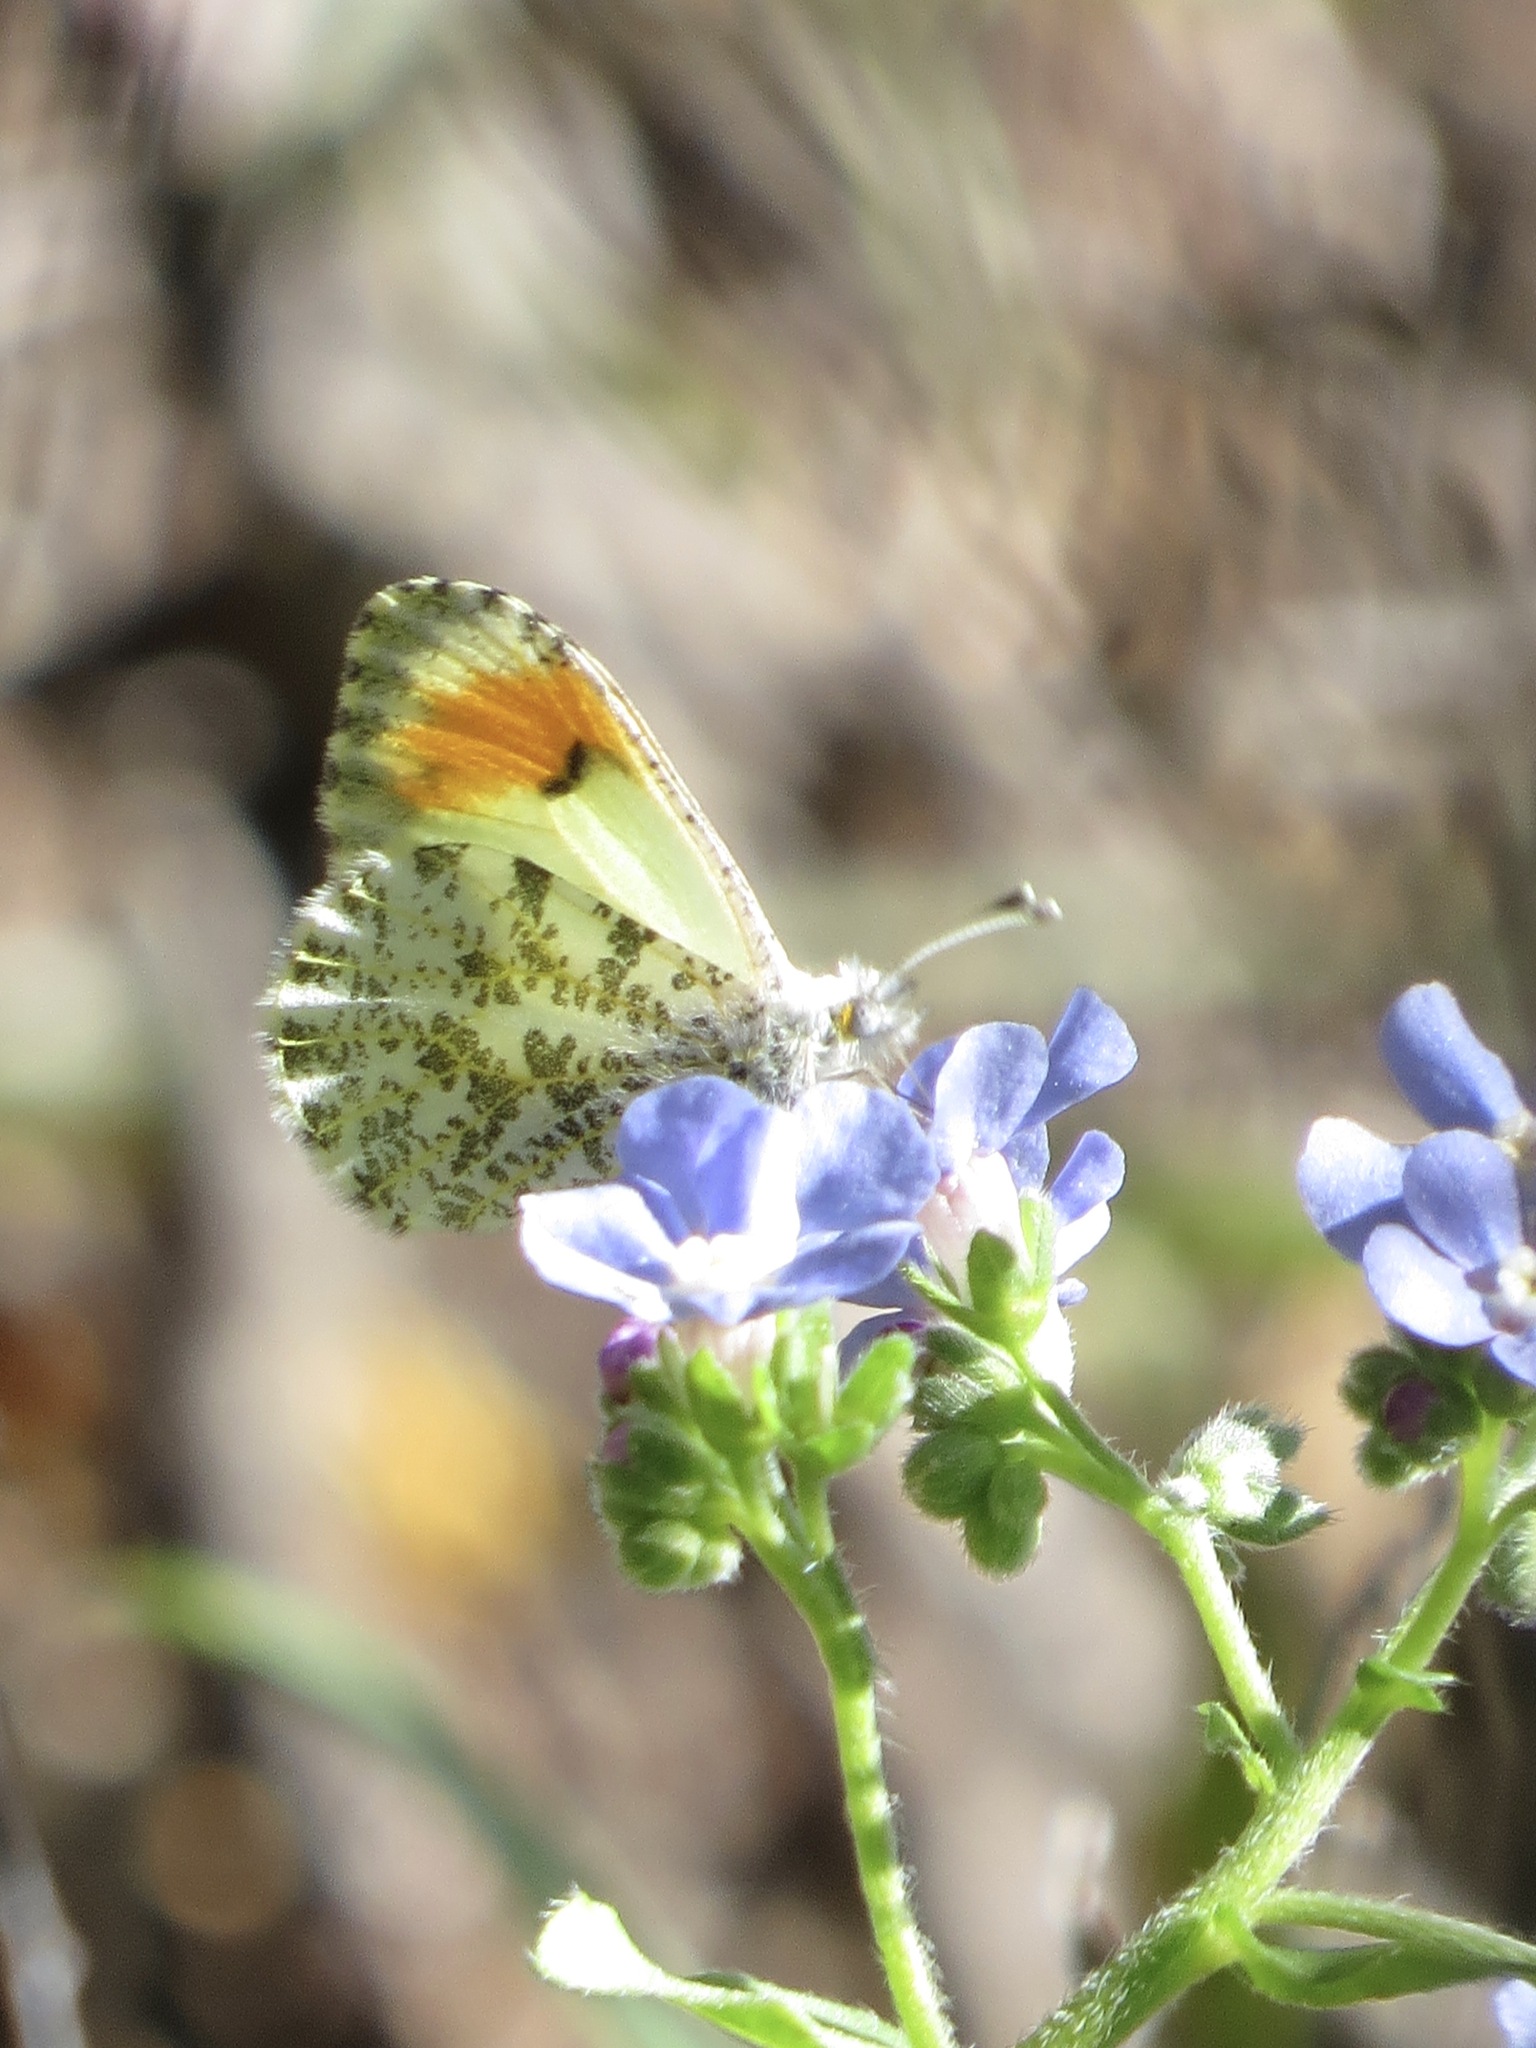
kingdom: Animalia
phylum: Arthropoda
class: Insecta
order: Lepidoptera
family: Pieridae
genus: Anthocharis
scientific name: Anthocharis julia
